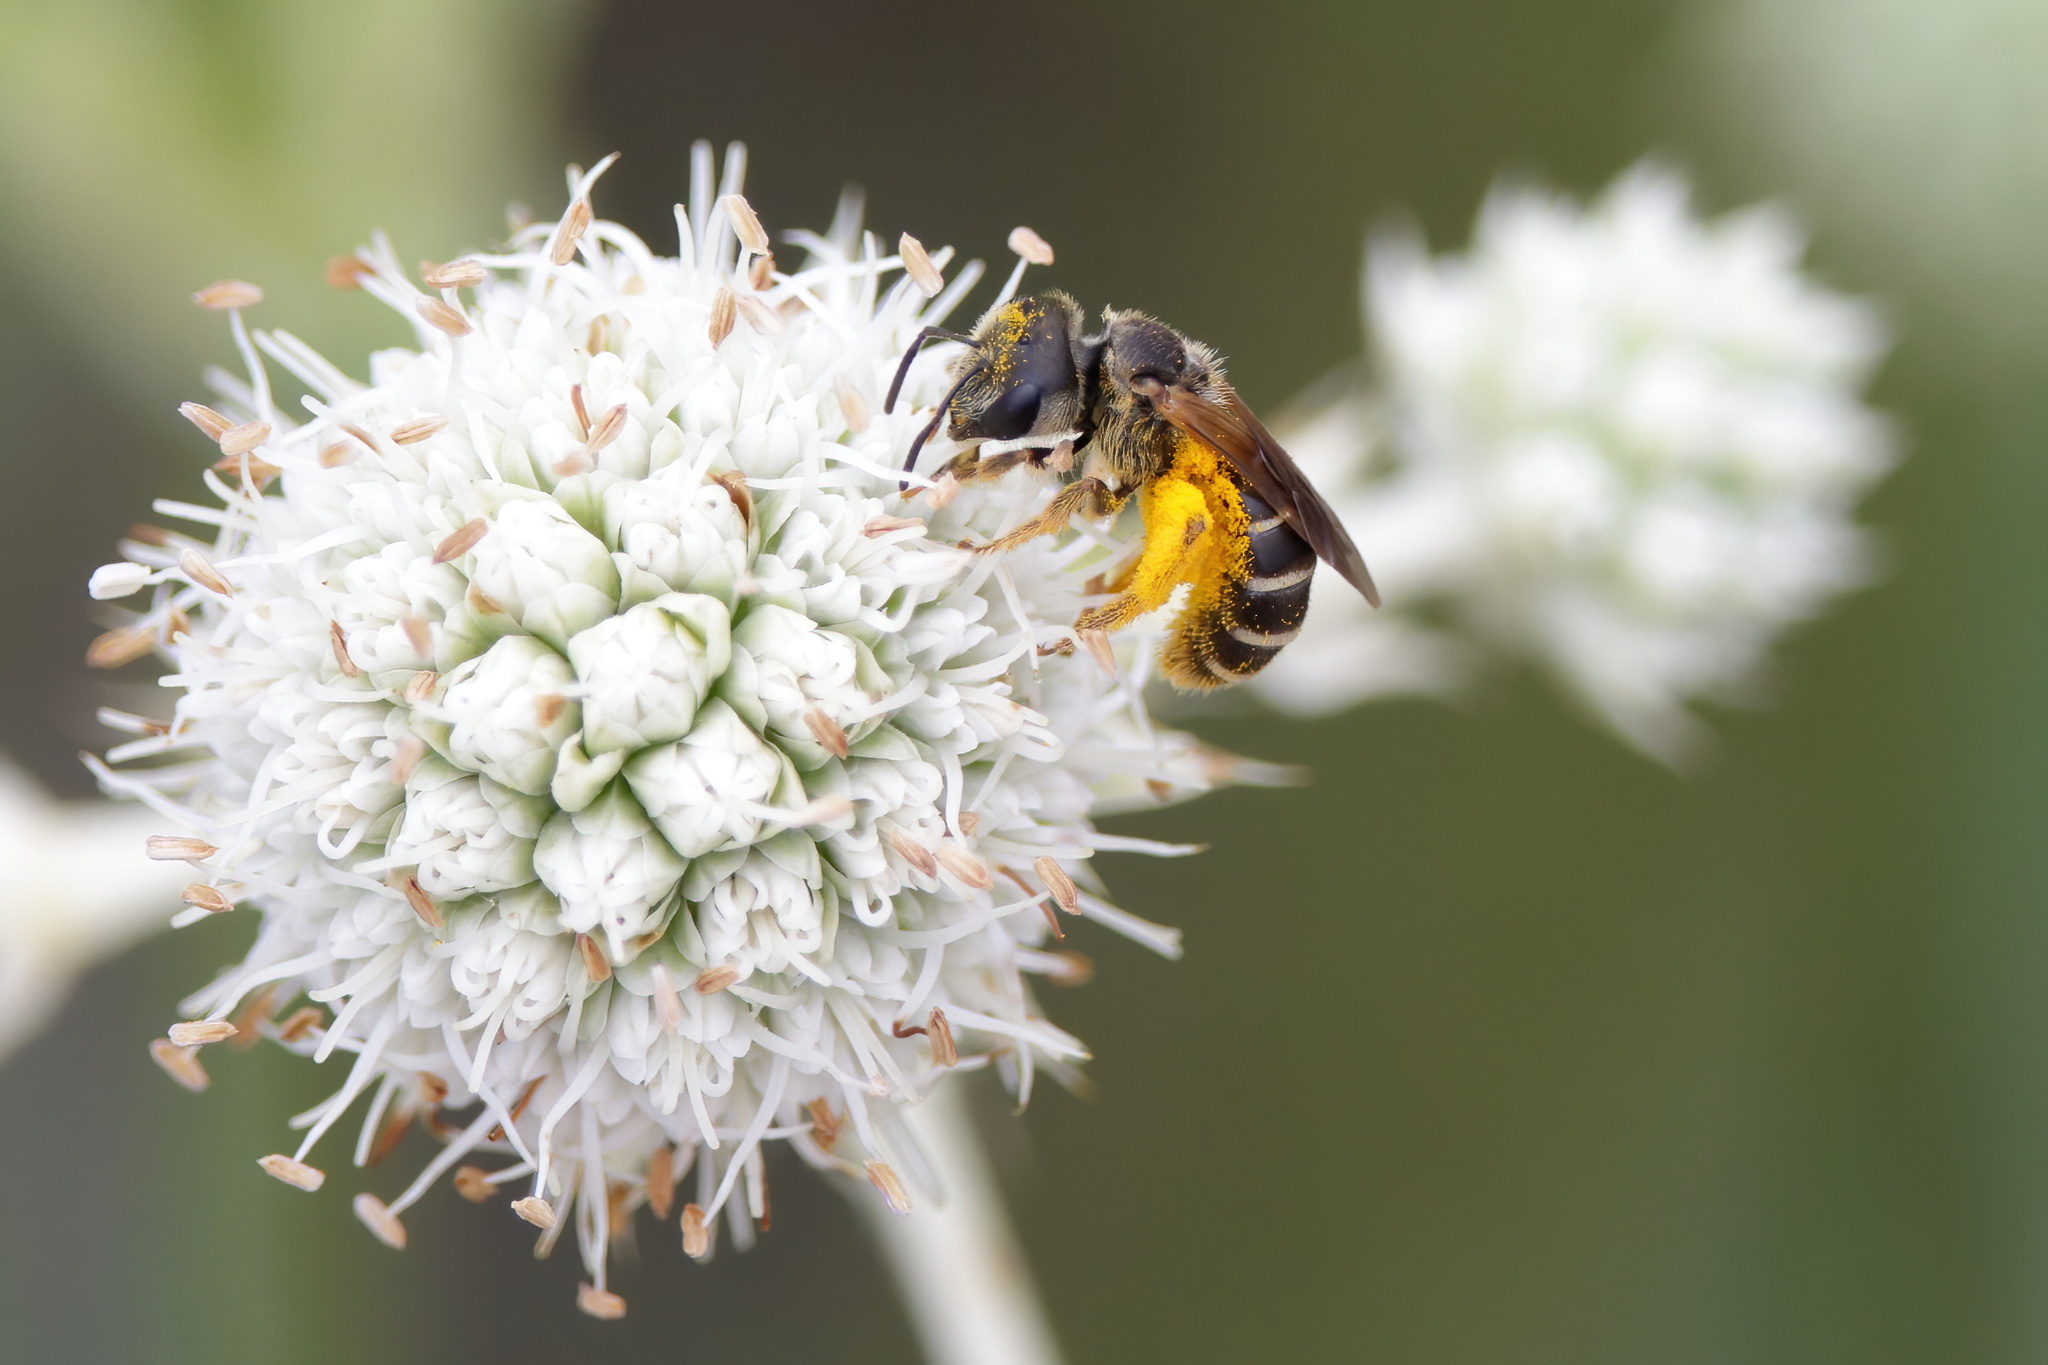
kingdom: Animalia
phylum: Arthropoda
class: Insecta
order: Hymenoptera
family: Halictidae
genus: Halictus
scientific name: Halictus poeyi
